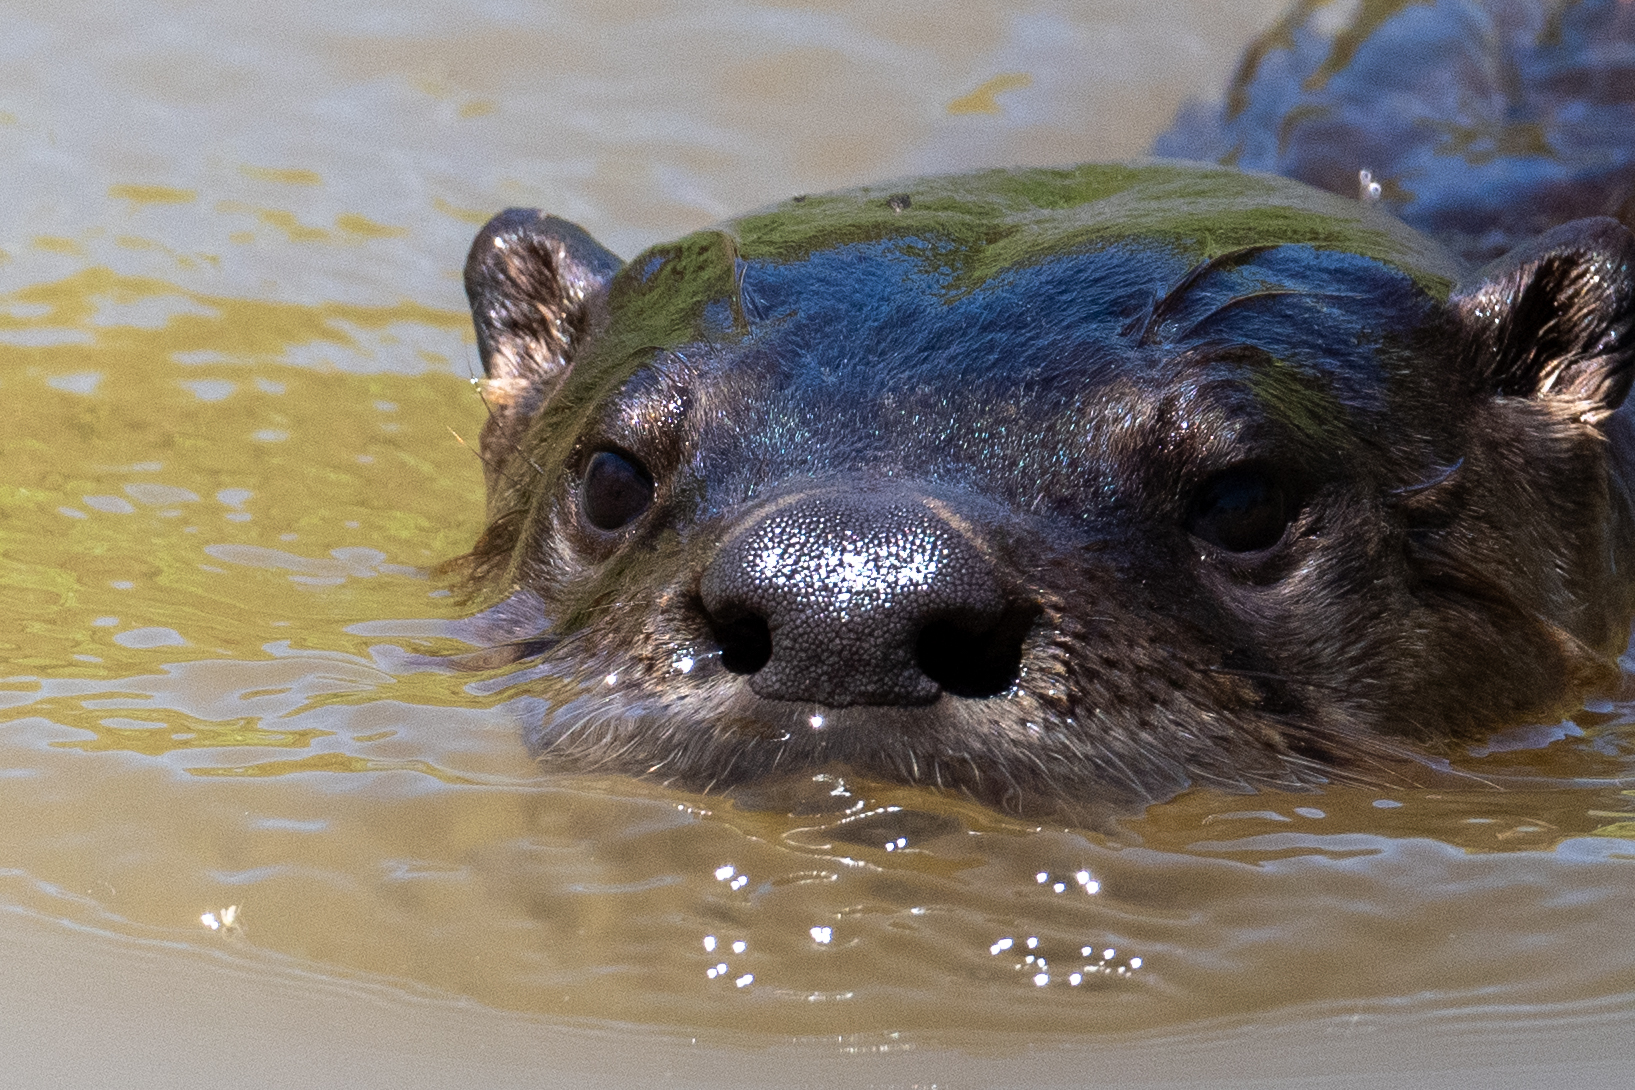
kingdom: Animalia
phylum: Chordata
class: Mammalia
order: Carnivora
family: Mustelidae
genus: Lontra
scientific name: Lontra canadensis
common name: North american river otter
